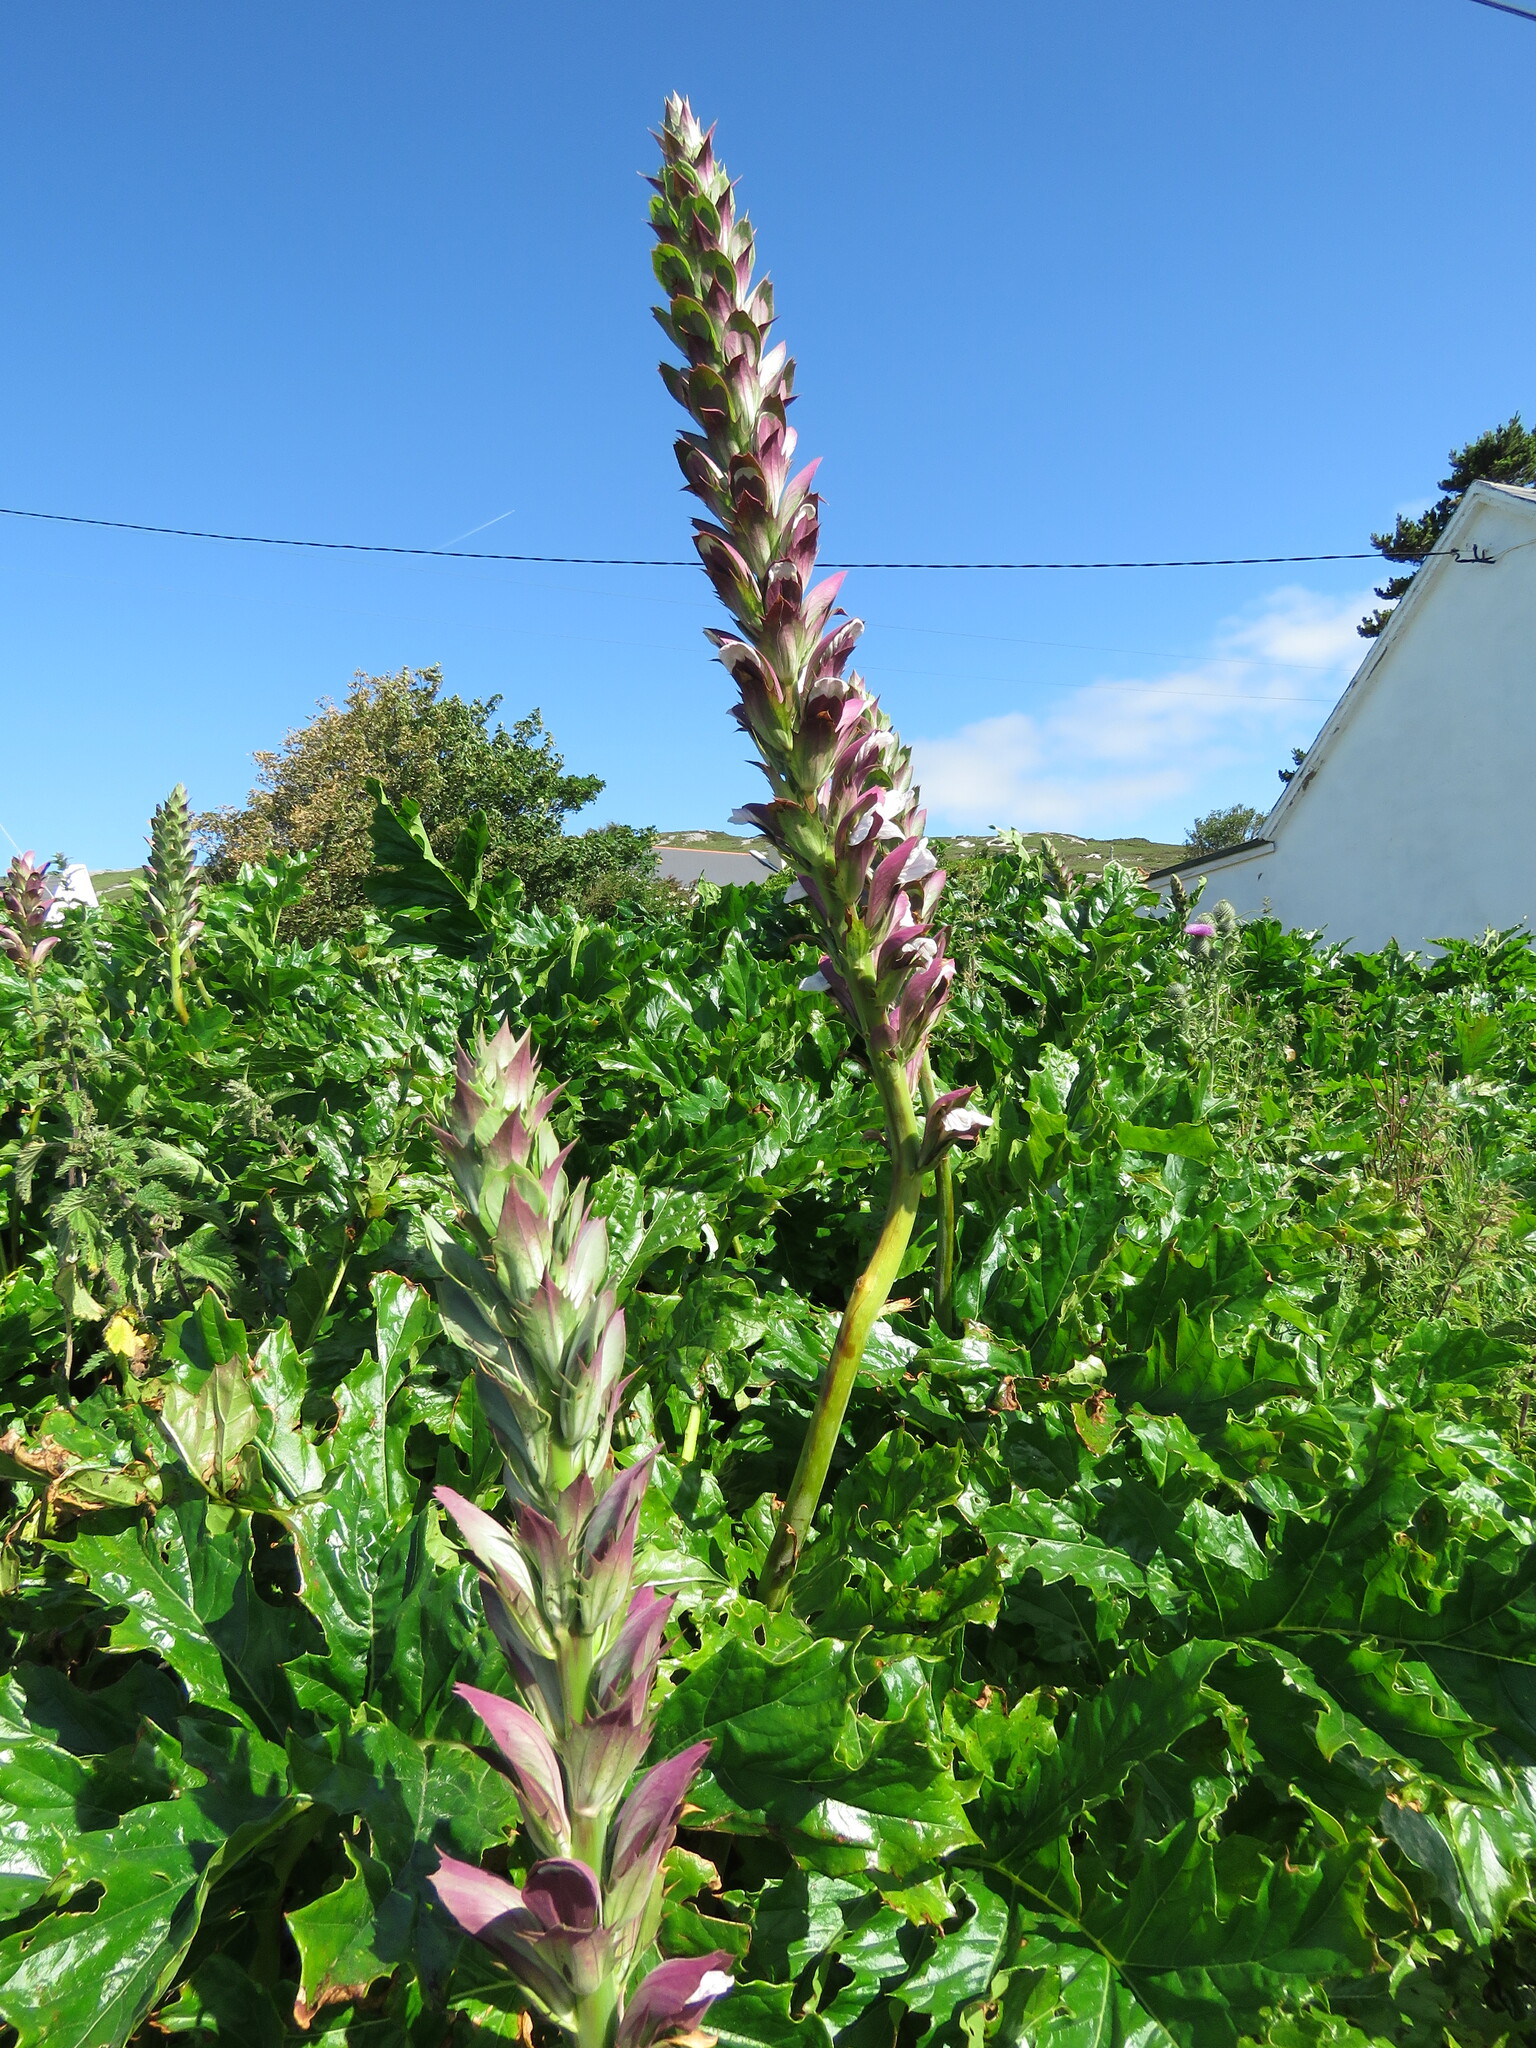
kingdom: Plantae
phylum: Tracheophyta
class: Magnoliopsida
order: Lamiales
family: Acanthaceae
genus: Acanthus
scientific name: Acanthus mollis
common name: Bear's-breech
